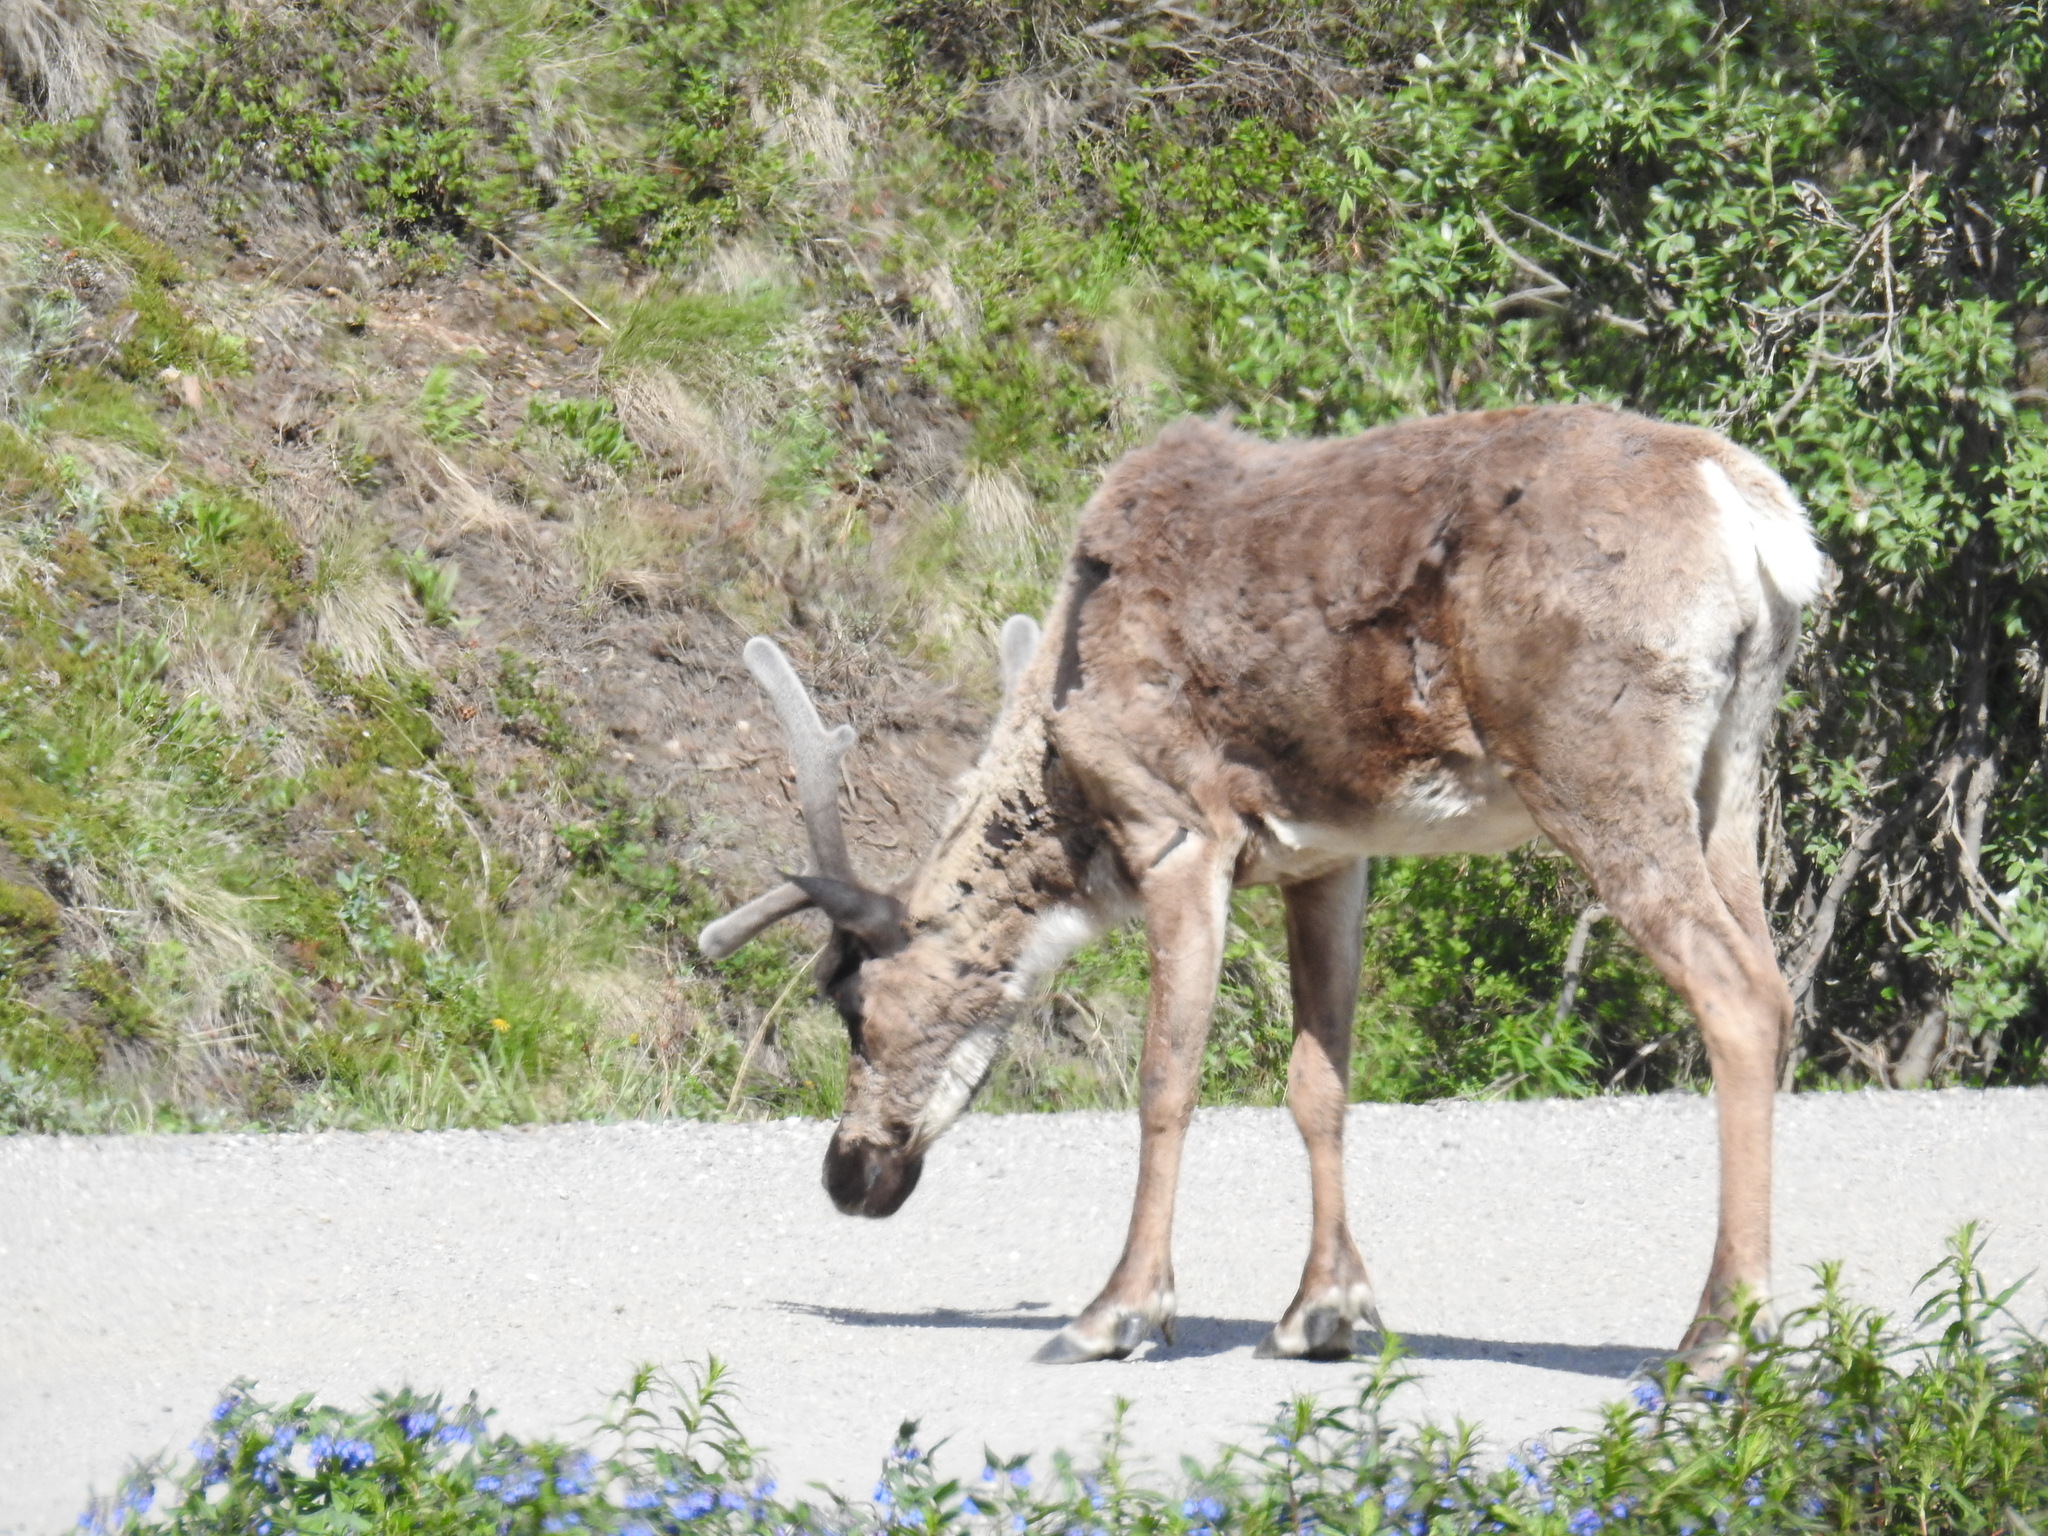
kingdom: Animalia
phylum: Chordata
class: Mammalia
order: Artiodactyla
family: Cervidae
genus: Rangifer
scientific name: Rangifer tarandus
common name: Reindeer
